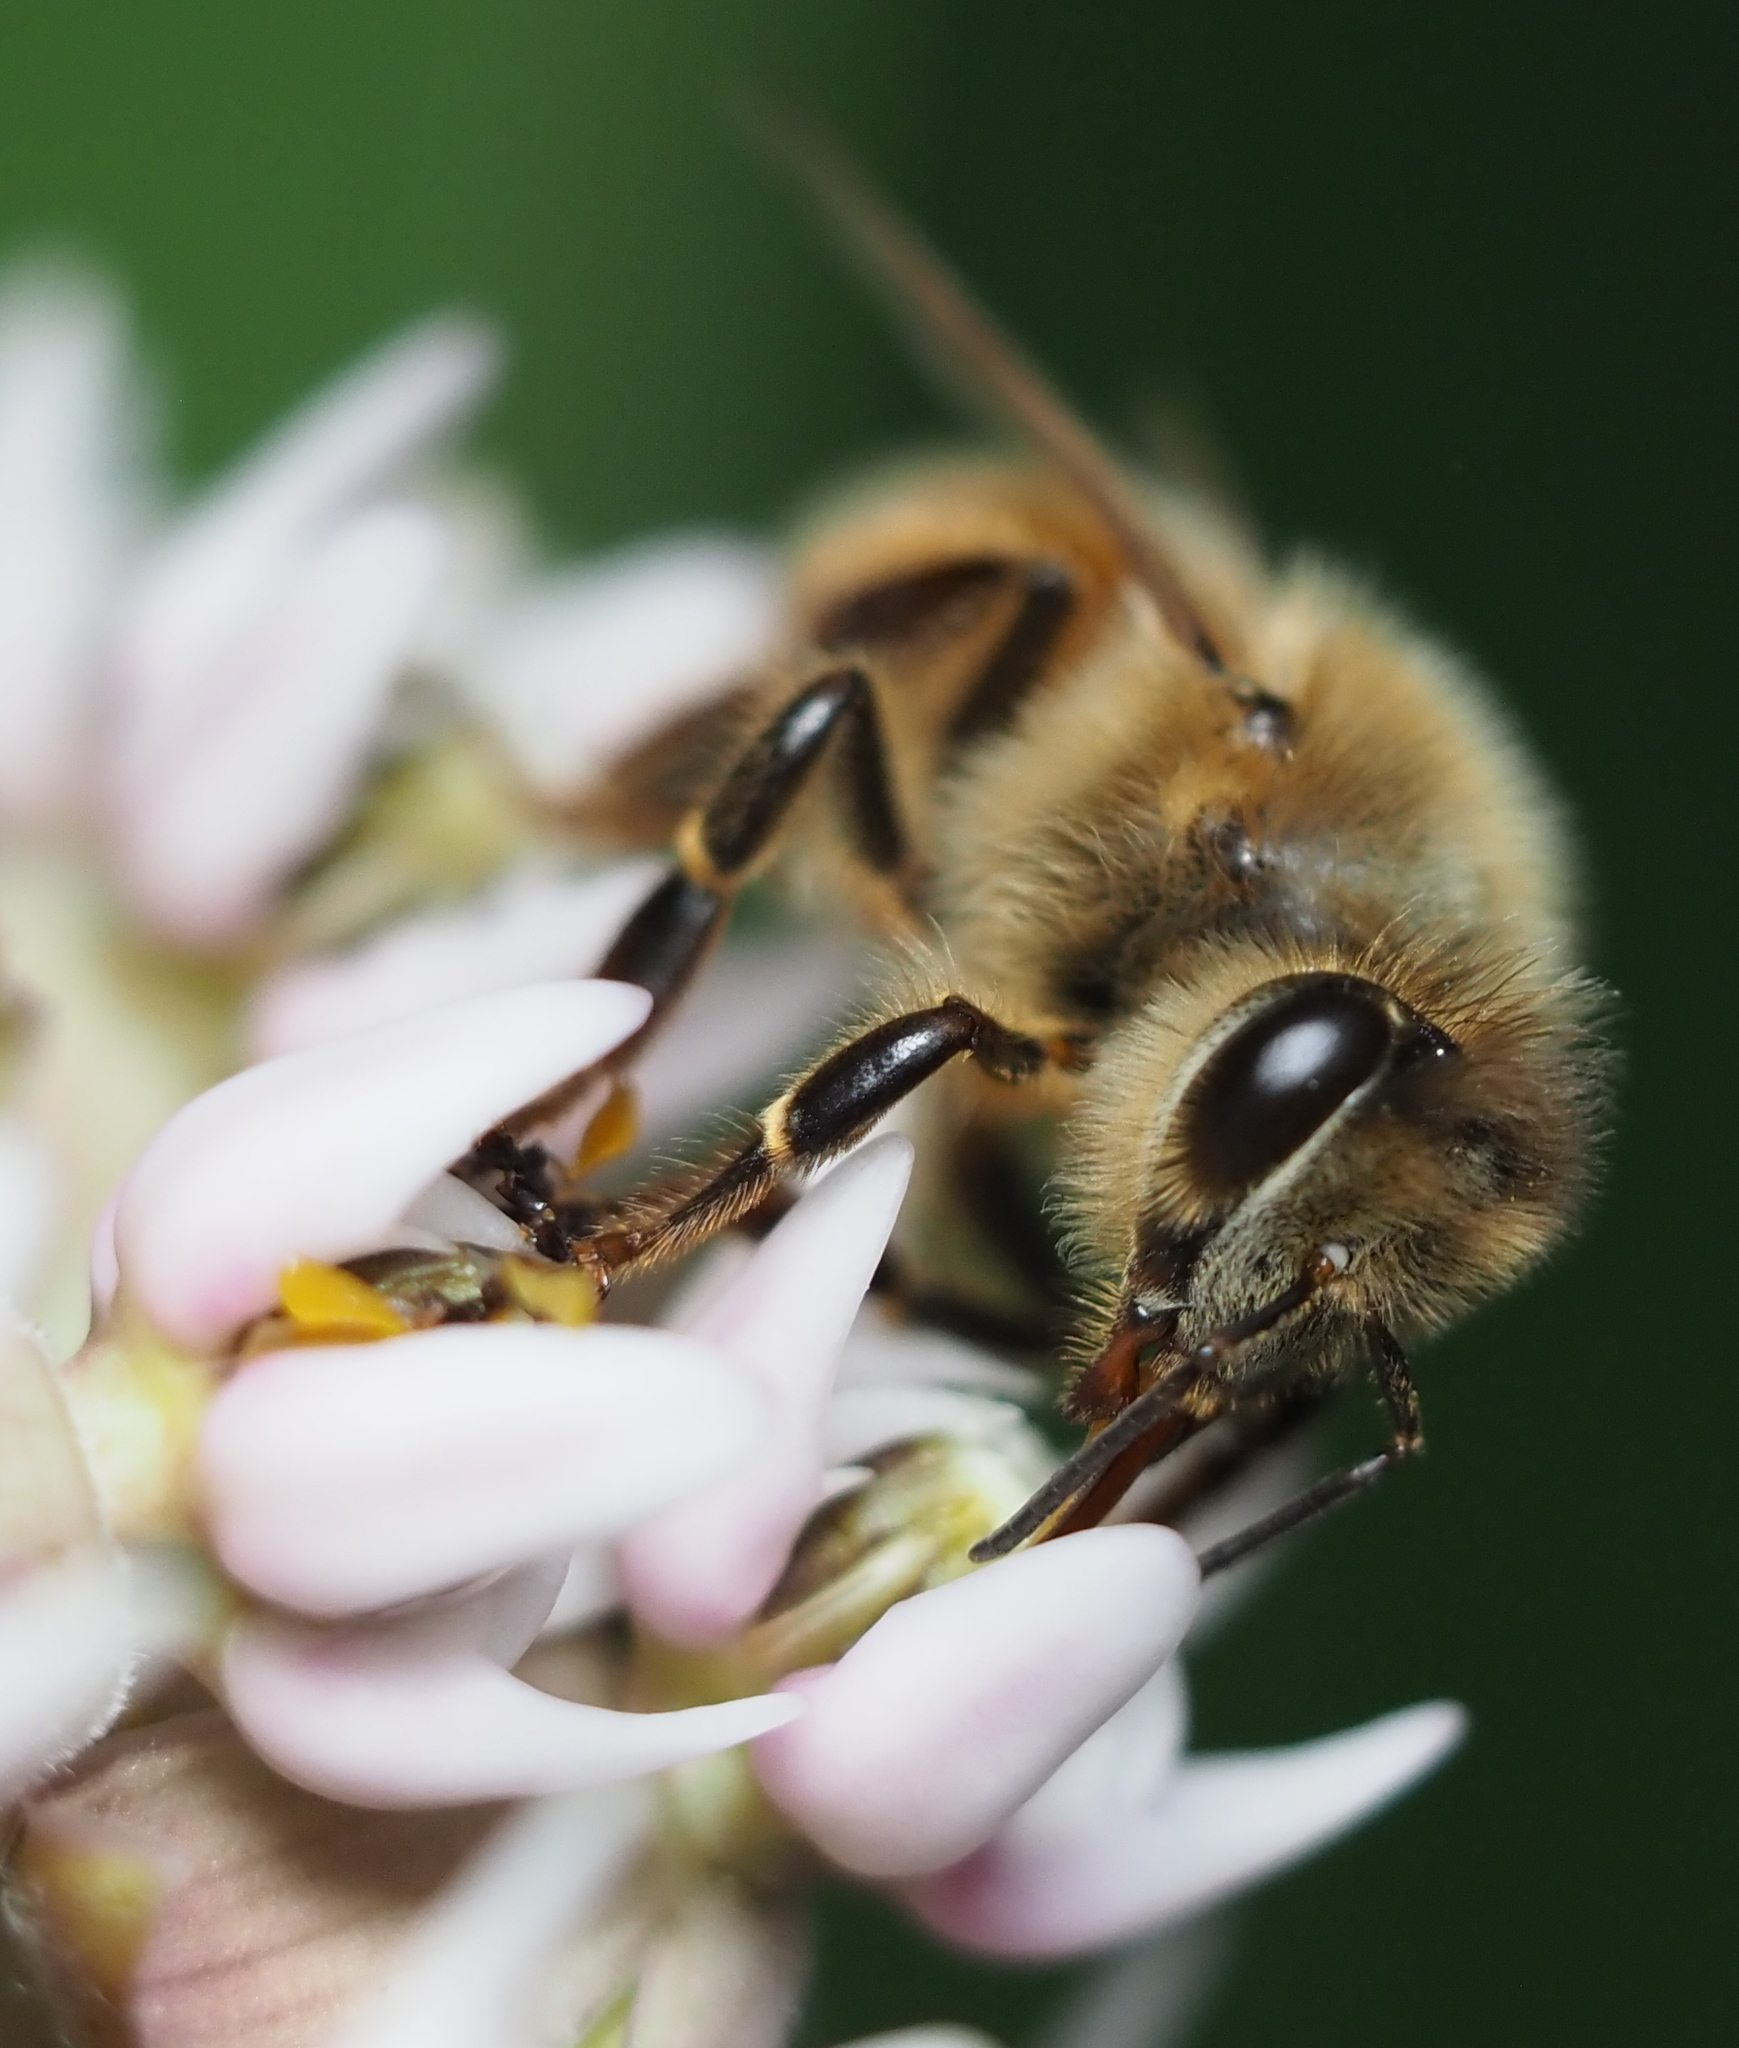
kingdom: Animalia
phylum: Arthropoda
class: Insecta
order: Hymenoptera
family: Apidae
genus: Apis
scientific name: Apis mellifera
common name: Honey bee
